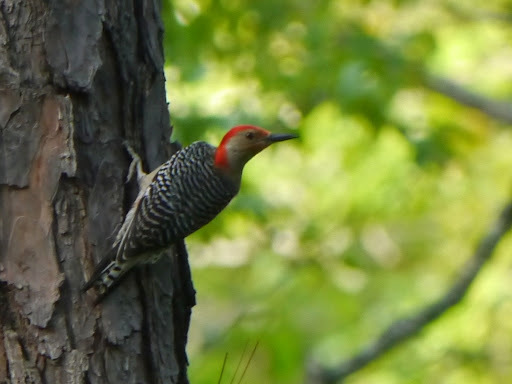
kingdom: Animalia
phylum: Chordata
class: Aves
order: Piciformes
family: Picidae
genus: Melanerpes
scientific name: Melanerpes carolinus
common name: Red-bellied woodpecker
